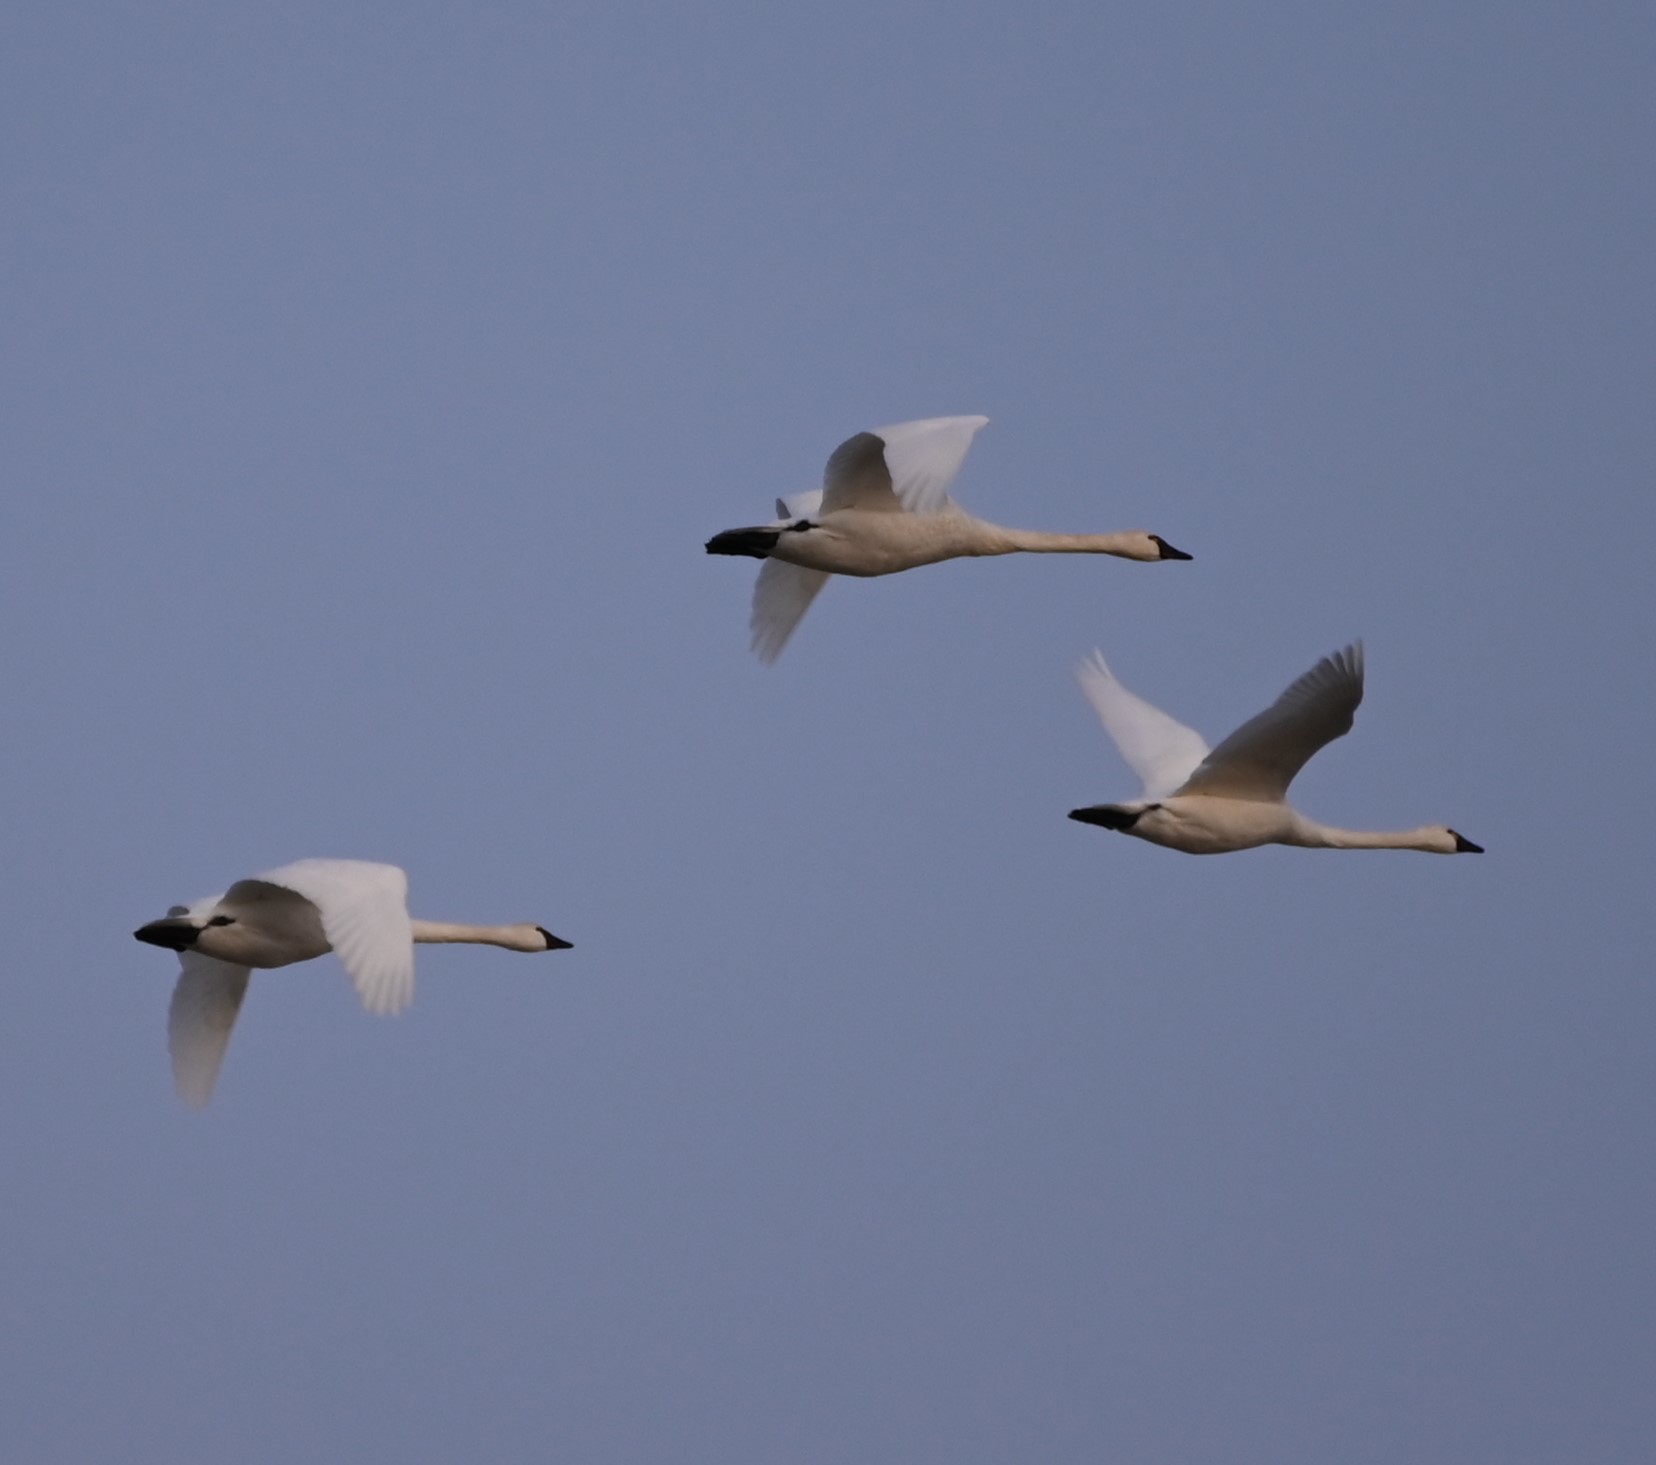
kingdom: Animalia
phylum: Chordata
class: Aves
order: Anseriformes
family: Anatidae
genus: Cygnus
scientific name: Cygnus columbianus
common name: Tundra swan
